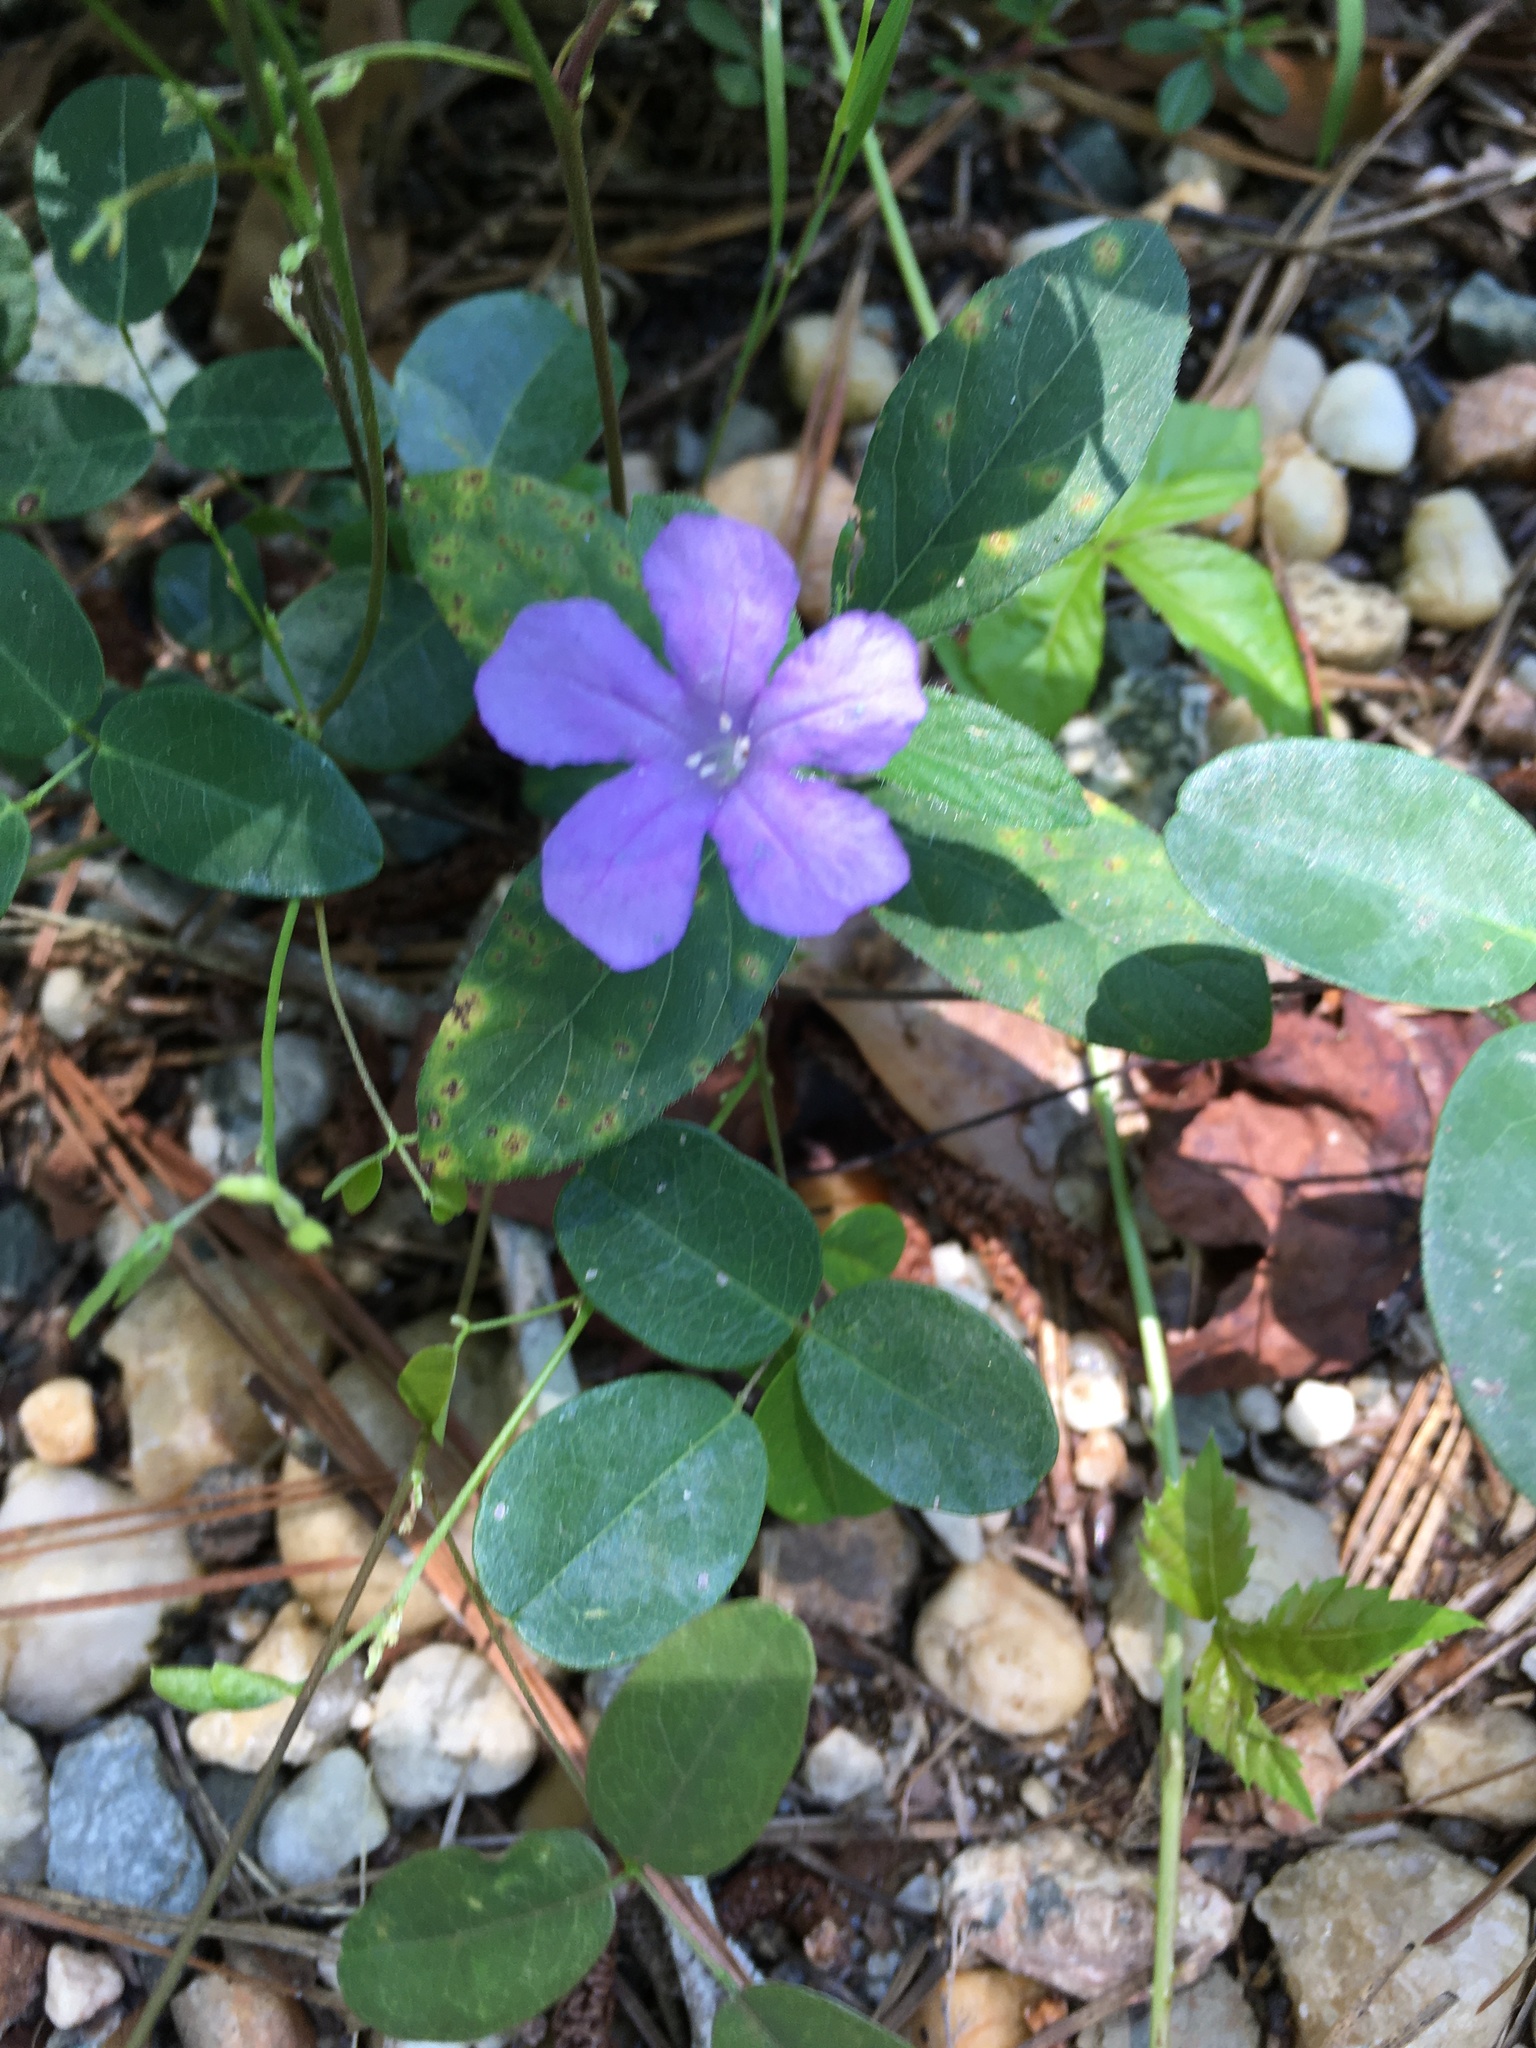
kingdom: Plantae
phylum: Tracheophyta
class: Magnoliopsida
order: Lamiales
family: Acanthaceae
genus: Ruellia
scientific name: Ruellia caroliniensis
